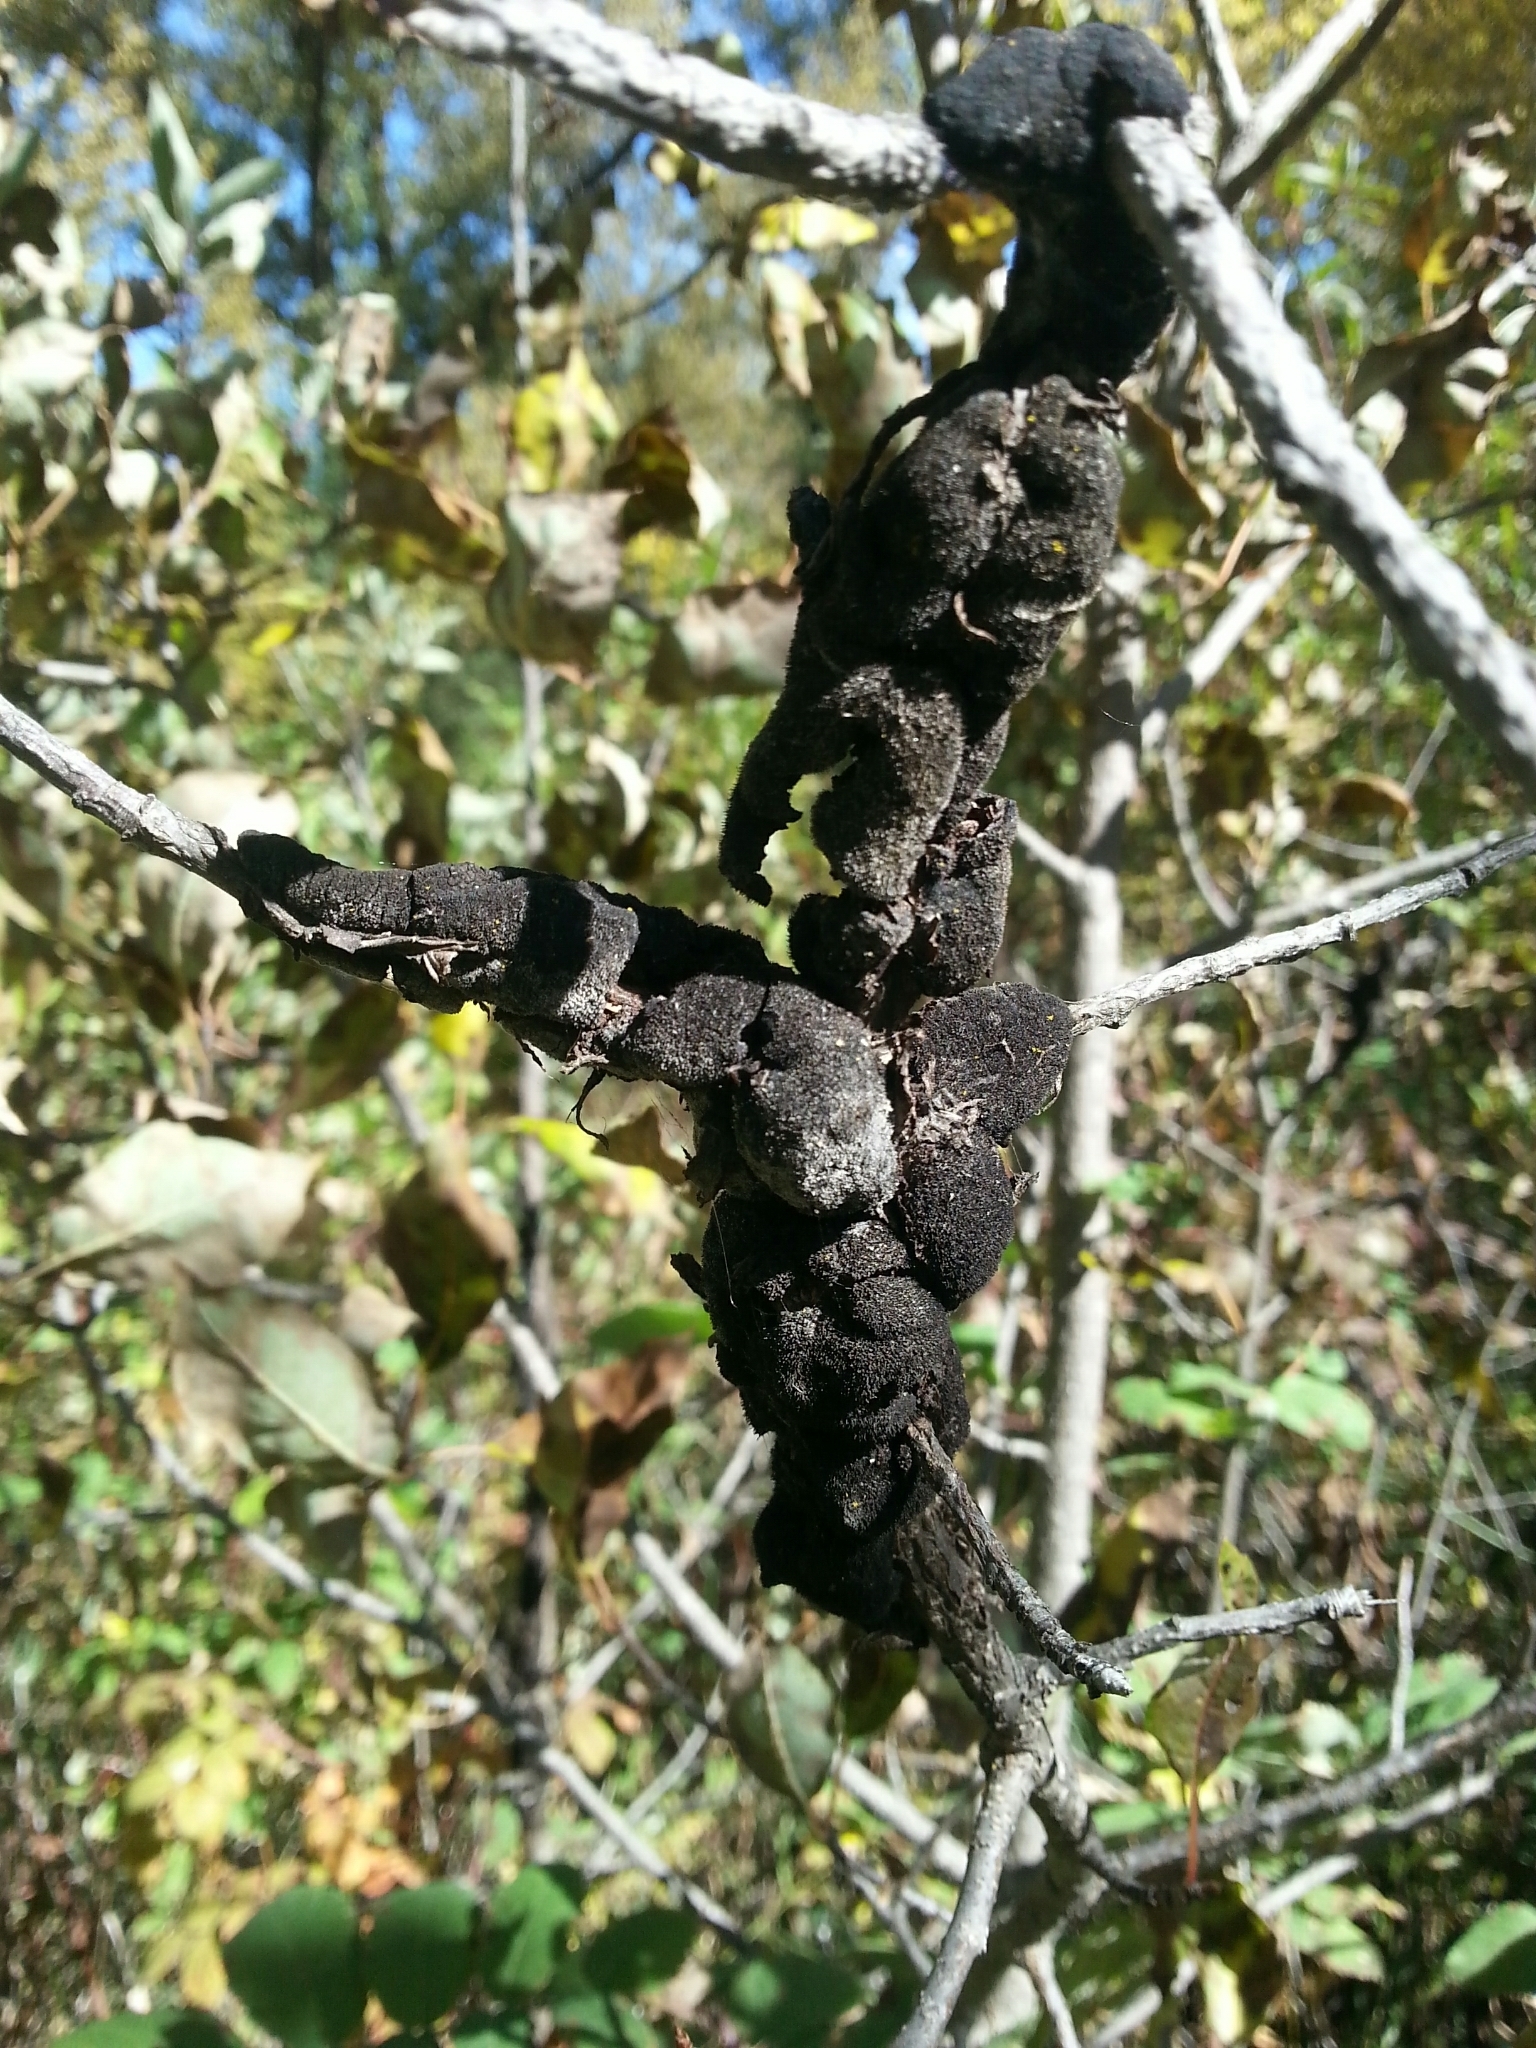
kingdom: Fungi
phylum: Ascomycota
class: Dothideomycetes
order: Venturiales
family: Venturiaceae
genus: Apiosporina
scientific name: Apiosporina morbosa
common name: Black knot
